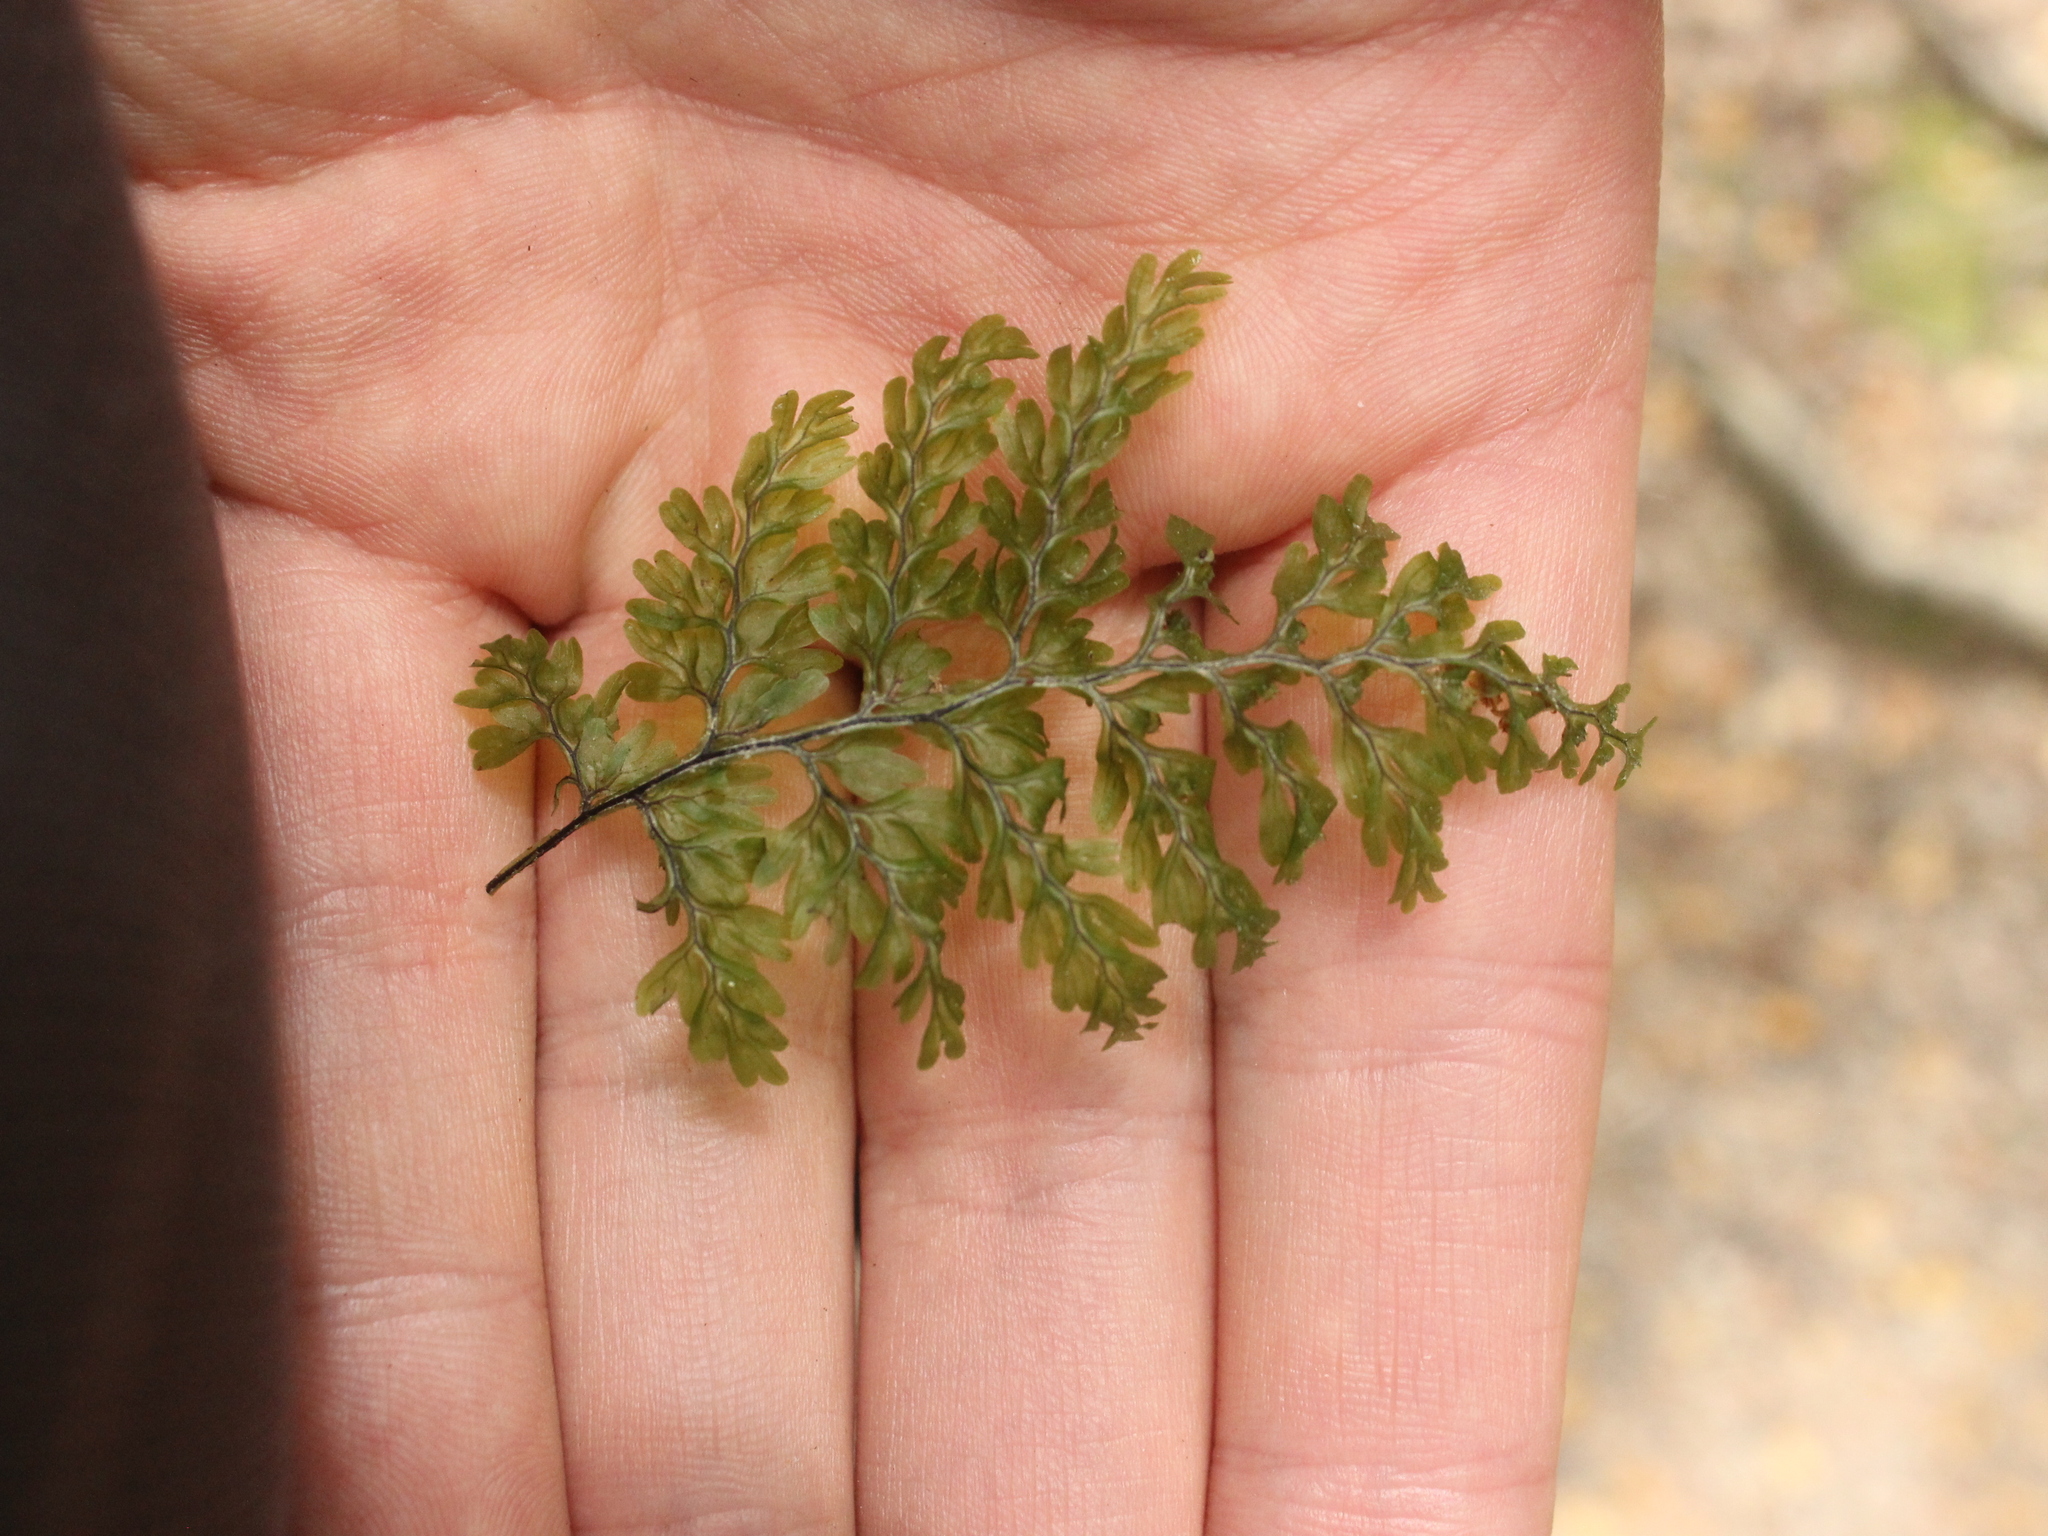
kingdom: Plantae
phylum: Tracheophyta
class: Polypodiopsida
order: Hymenophyllales
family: Hymenophyllaceae
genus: Hymenophyllum
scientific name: Hymenophyllum sanguinolentum
